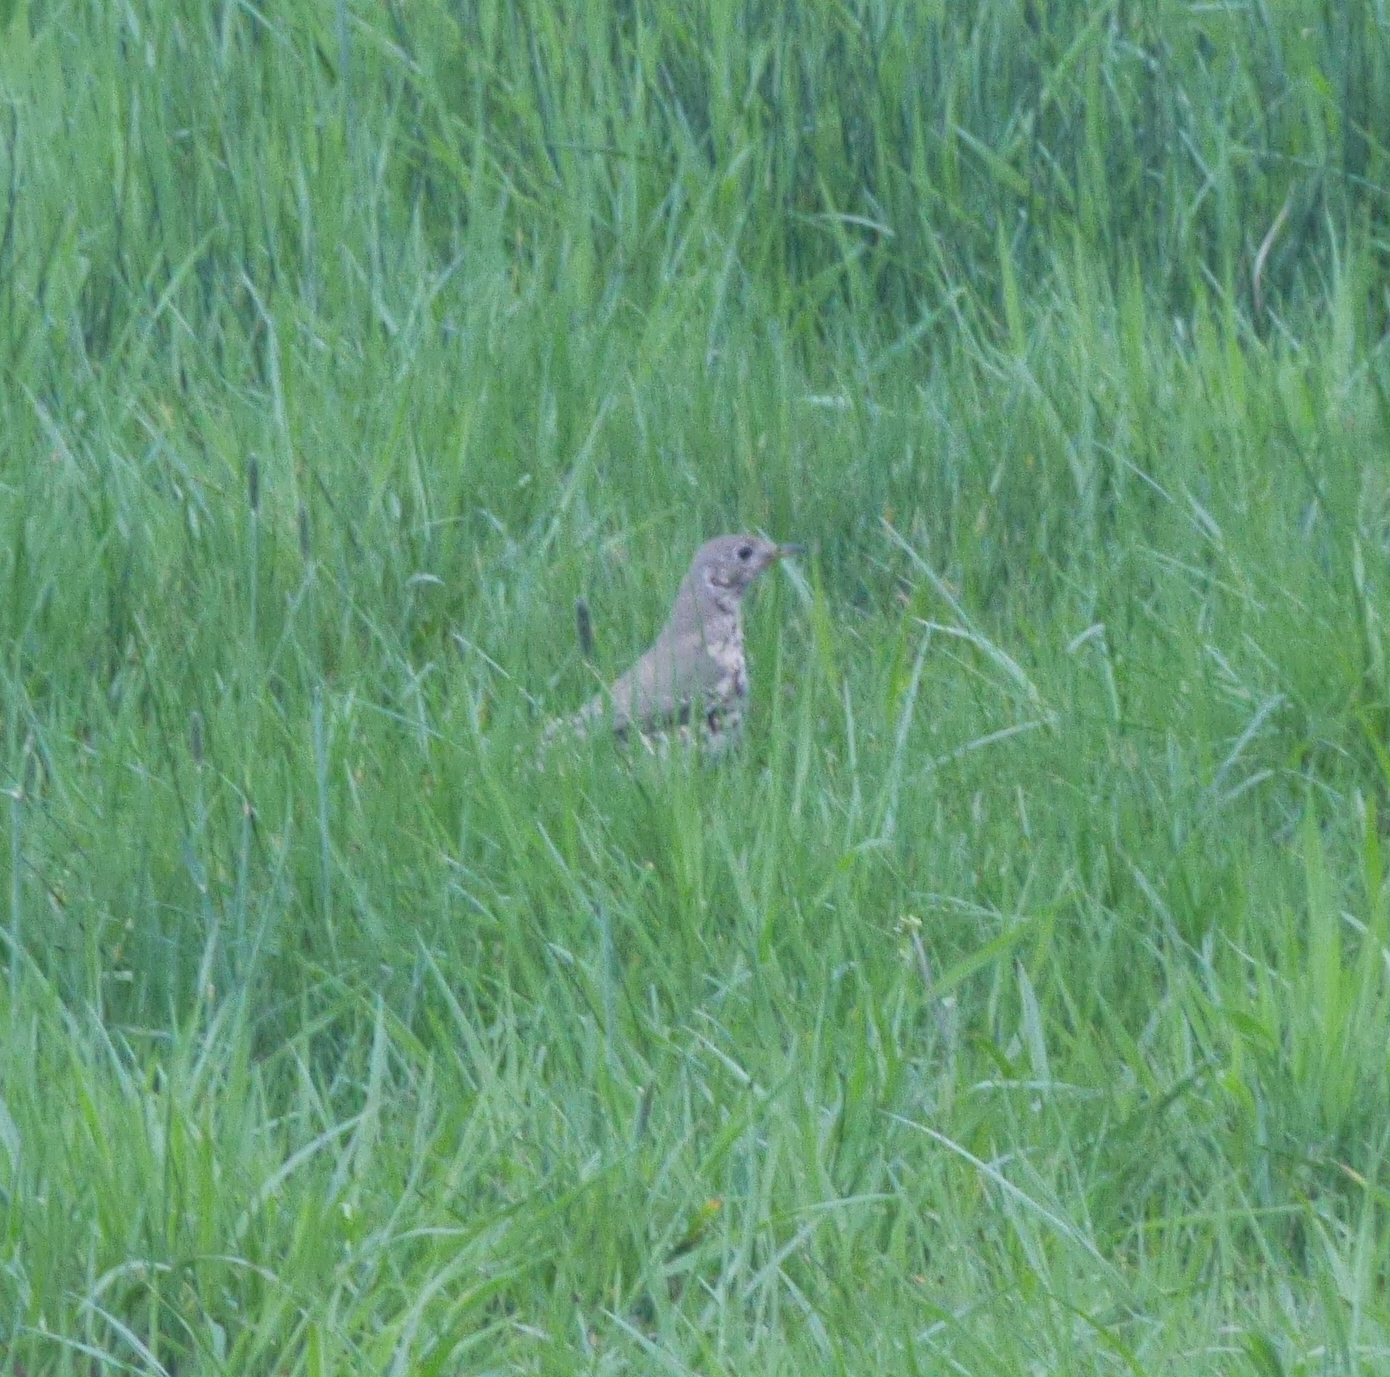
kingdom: Animalia
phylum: Chordata
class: Aves
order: Passeriformes
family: Turdidae
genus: Turdus
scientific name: Turdus viscivorus
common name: Mistle thrush
